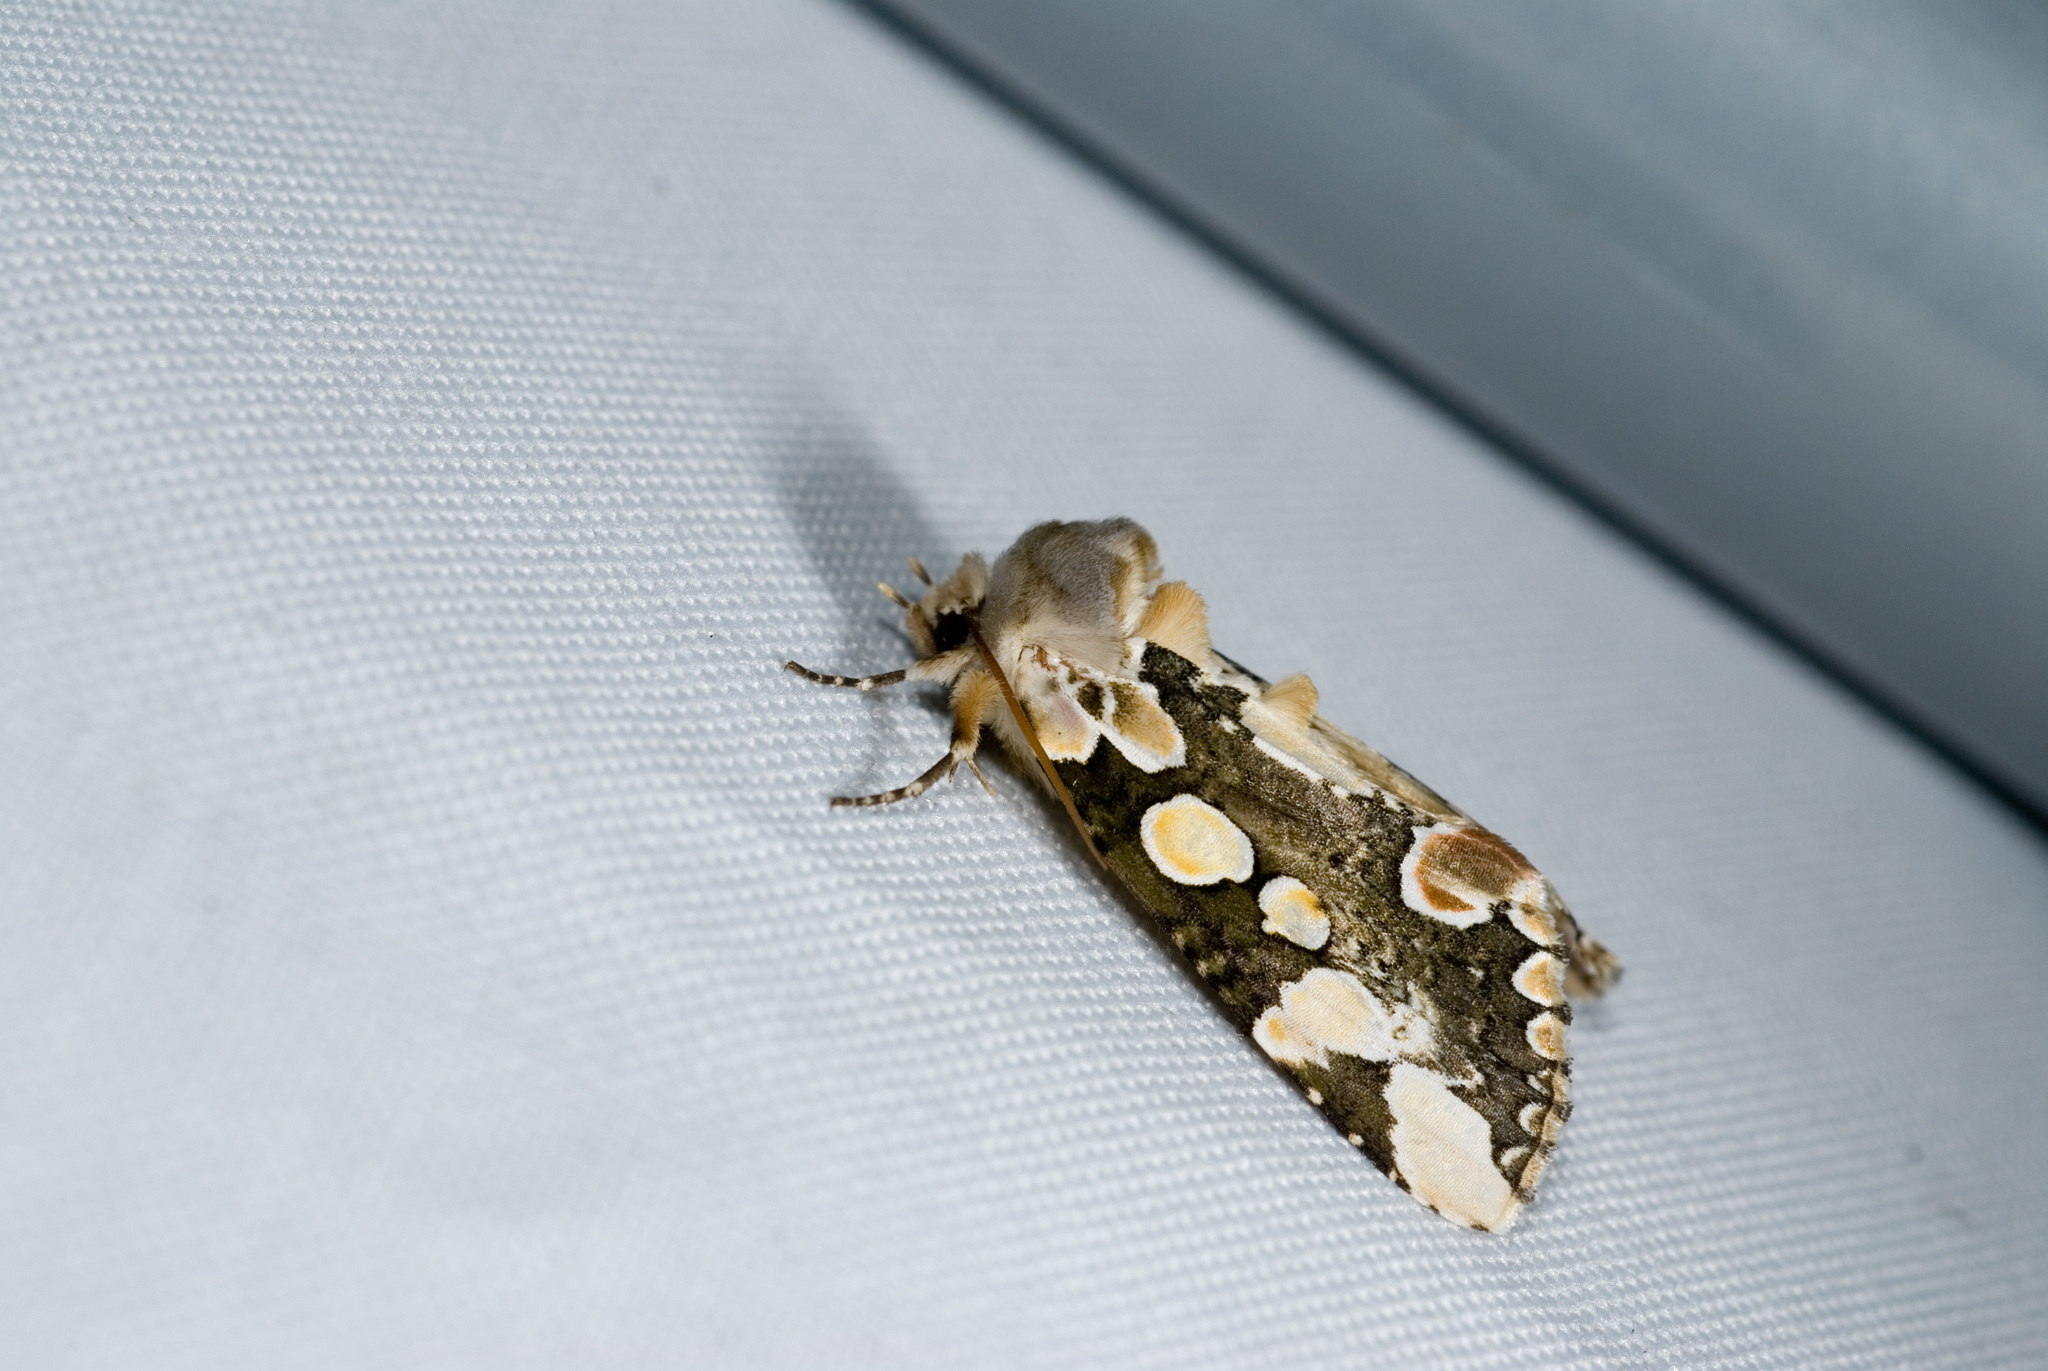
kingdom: Animalia
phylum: Arthropoda
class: Insecta
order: Lepidoptera
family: Drepanidae
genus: Horithyatira
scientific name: Horithyatira takamukui
